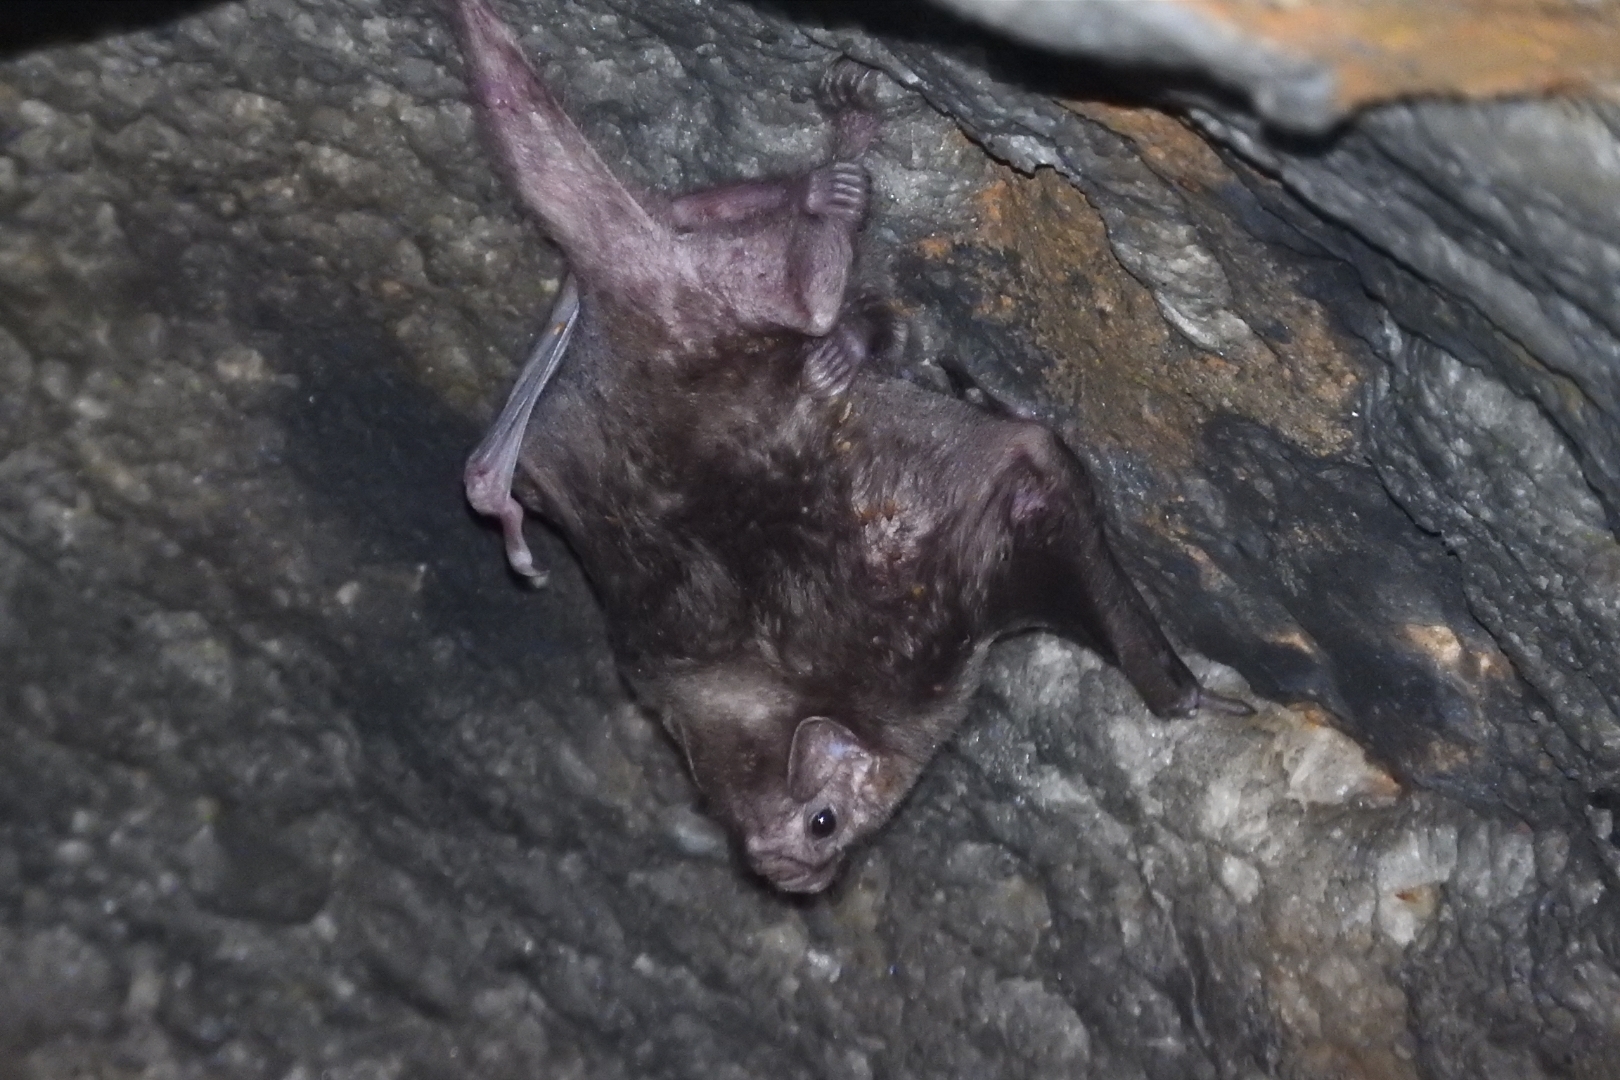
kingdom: Animalia
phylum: Chordata
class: Mammalia
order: Chiroptera
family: Phyllostomidae
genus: Diphylla
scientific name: Diphylla ecaudata
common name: Hairy-legged vampire bat
